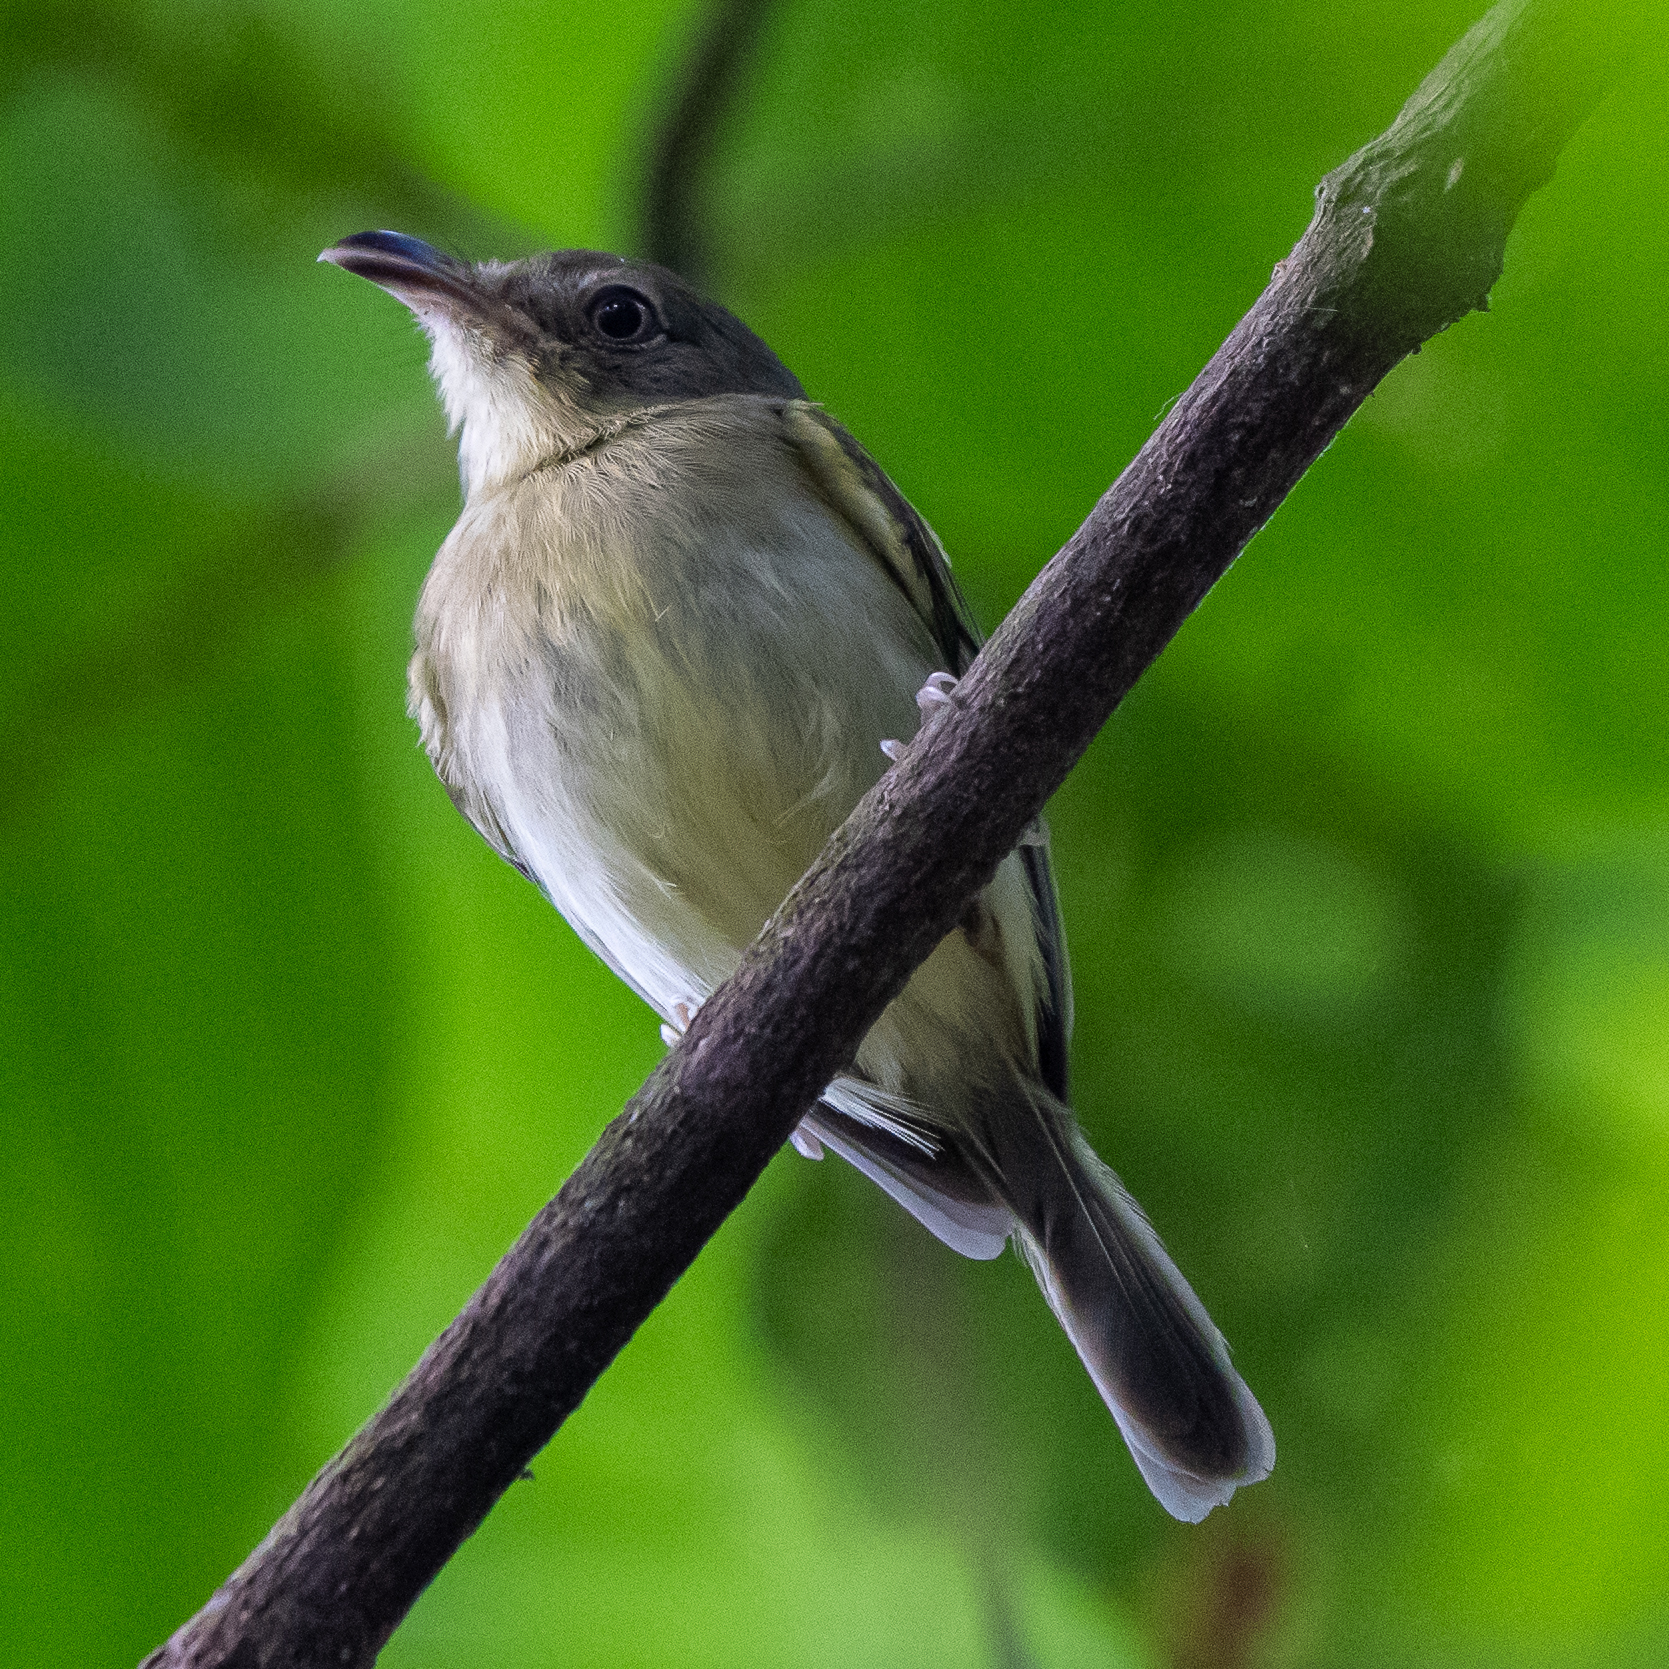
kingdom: Animalia
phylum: Chordata
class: Aves
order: Passeriformes
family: Tyrannidae
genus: Oncostoma
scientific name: Oncostoma olivaceum
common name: Southern bentbill
